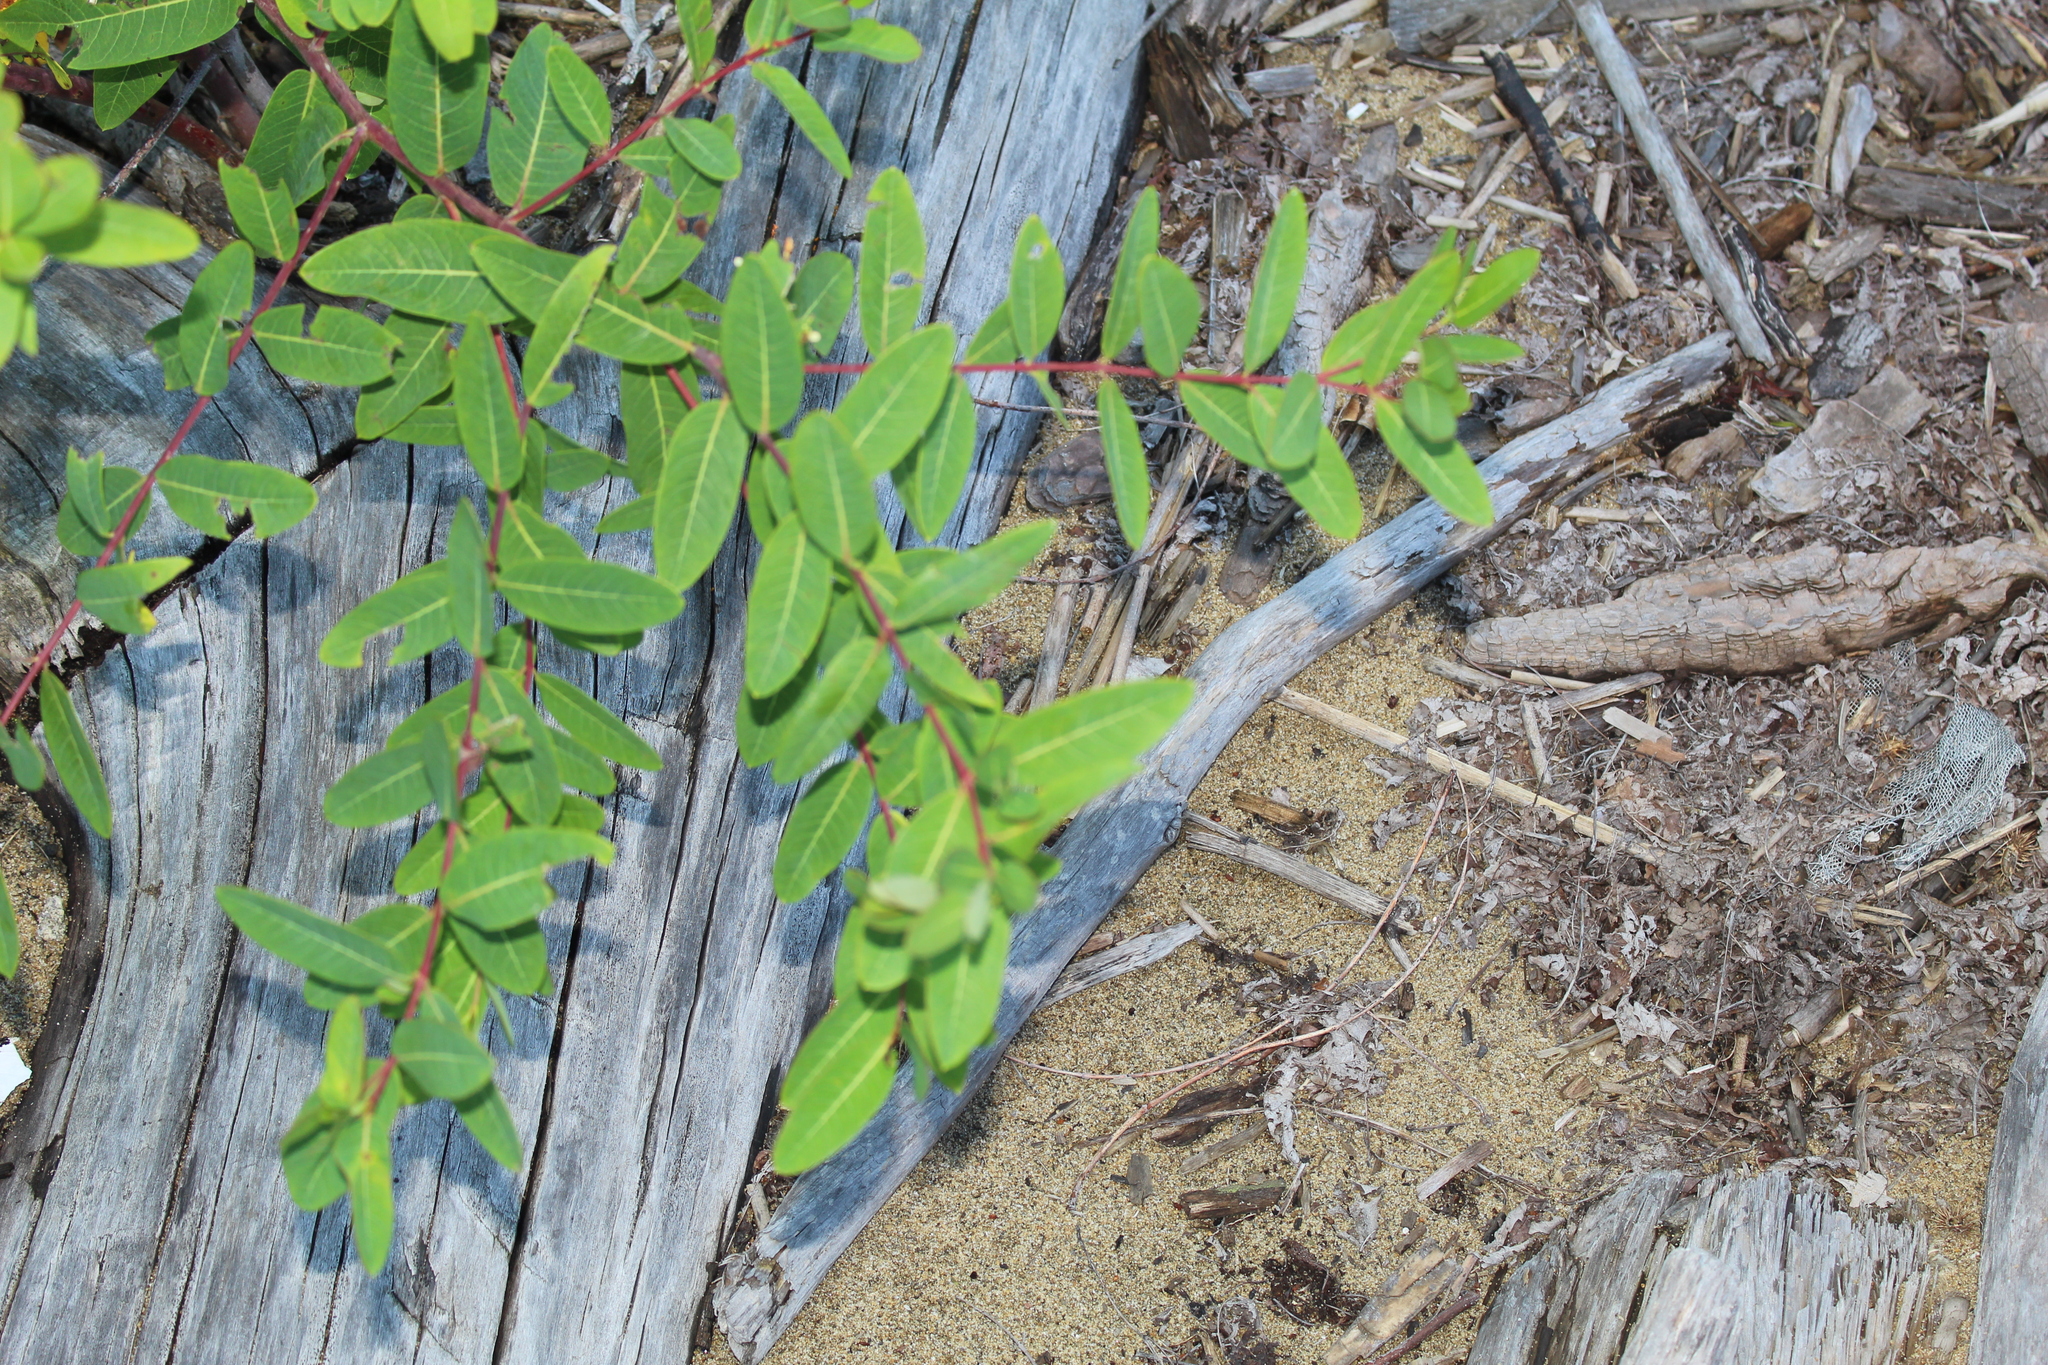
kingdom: Plantae
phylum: Tracheophyta
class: Magnoliopsida
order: Gentianales
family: Apocynaceae
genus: Apocynum
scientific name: Apocynum cannabinum
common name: Hemp dogbane
